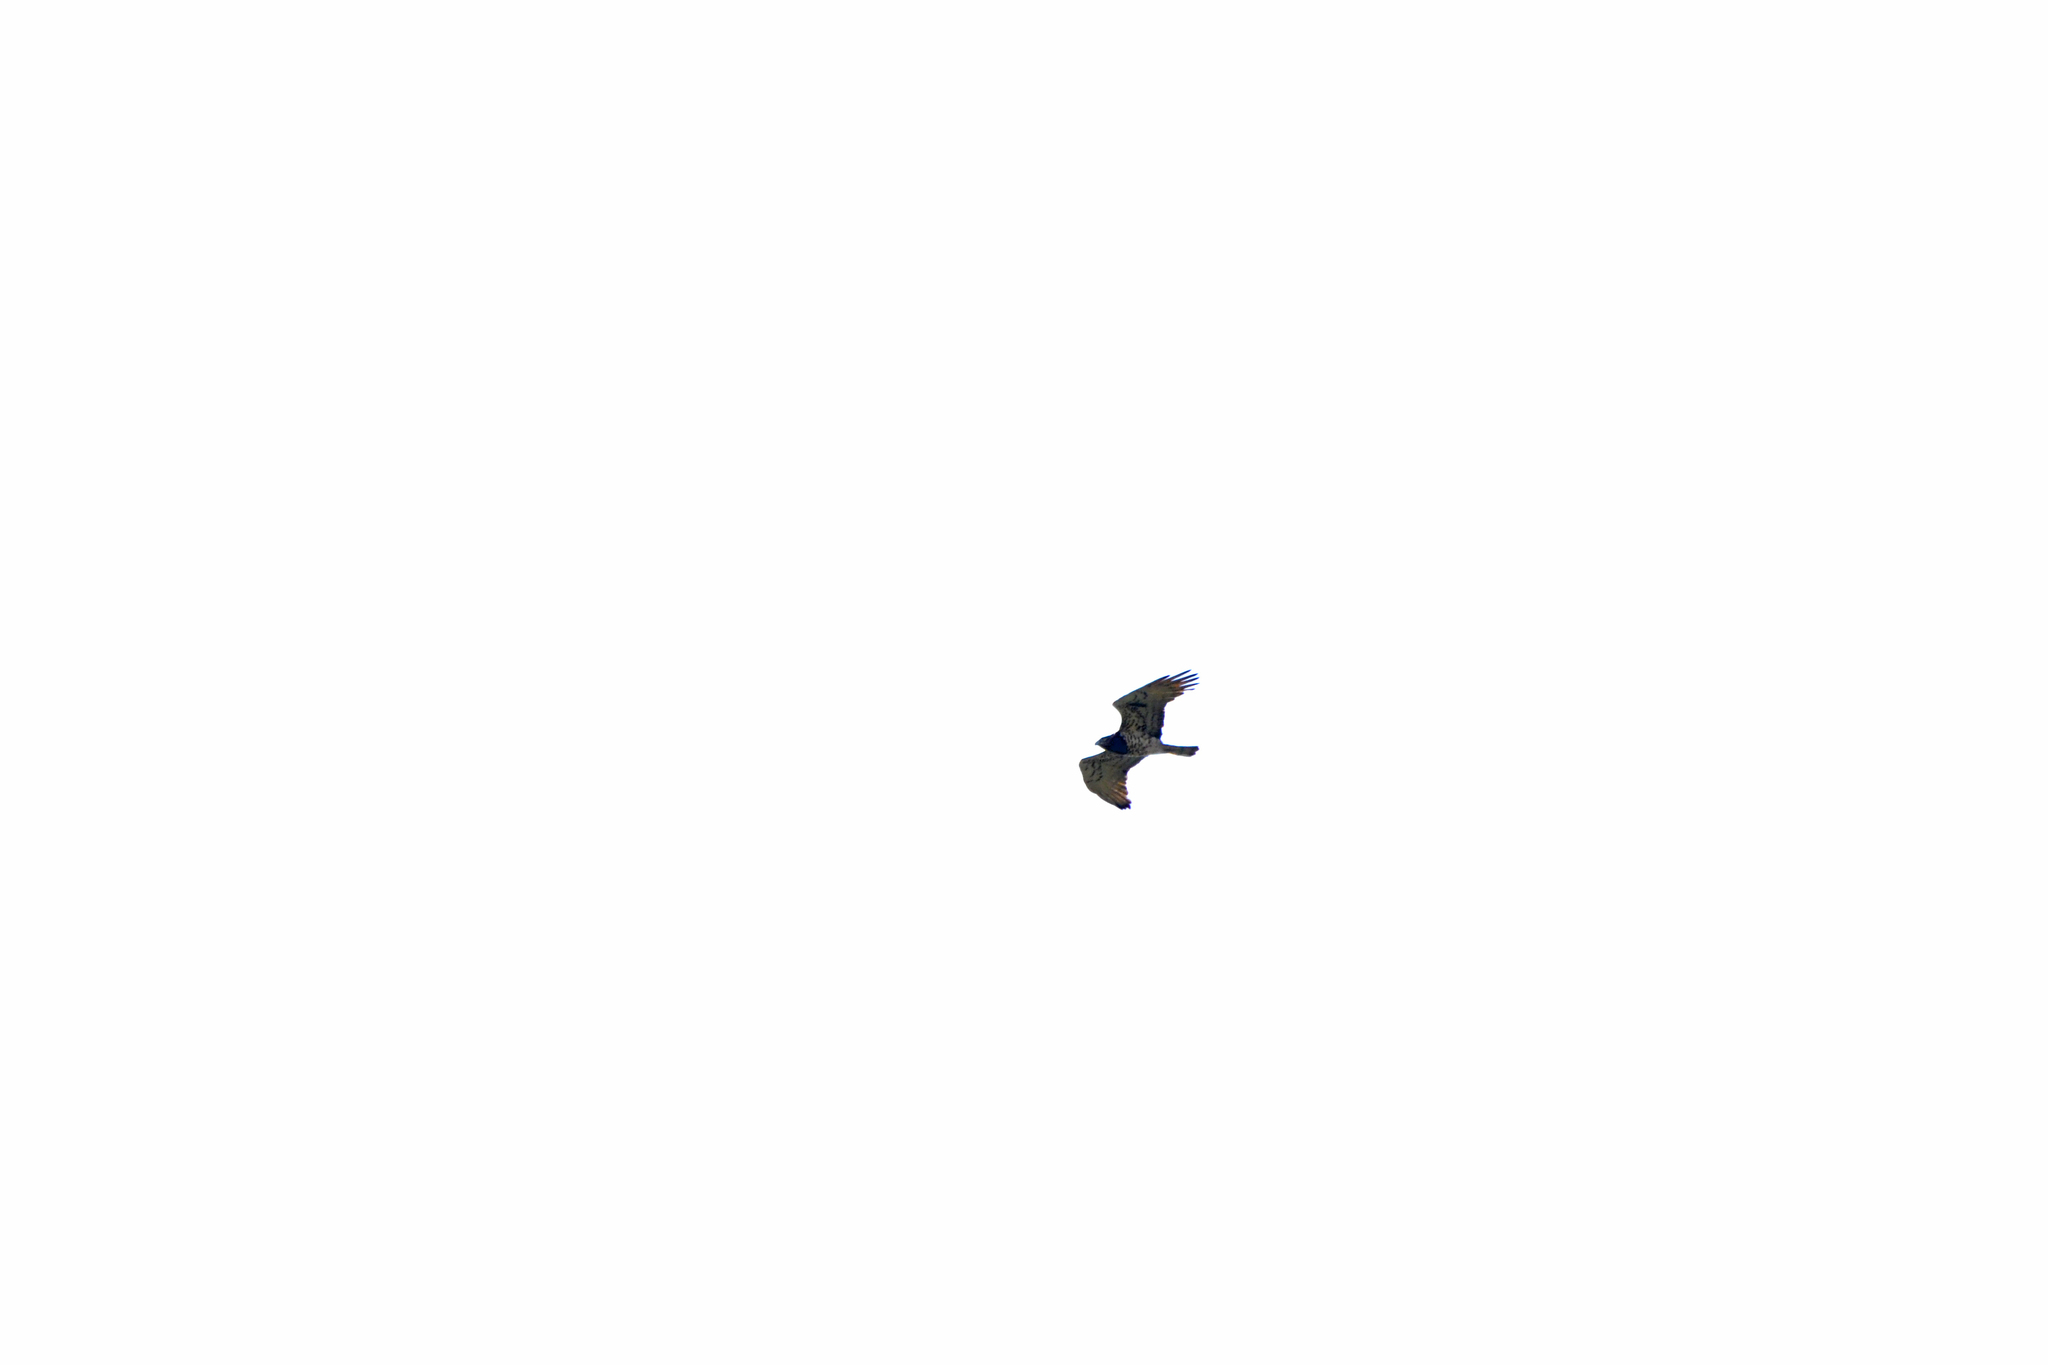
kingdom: Animalia
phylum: Chordata
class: Aves
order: Accipitriformes
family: Accipitridae
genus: Circaetus
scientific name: Circaetus gallicus
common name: Short-toed snake eagle
